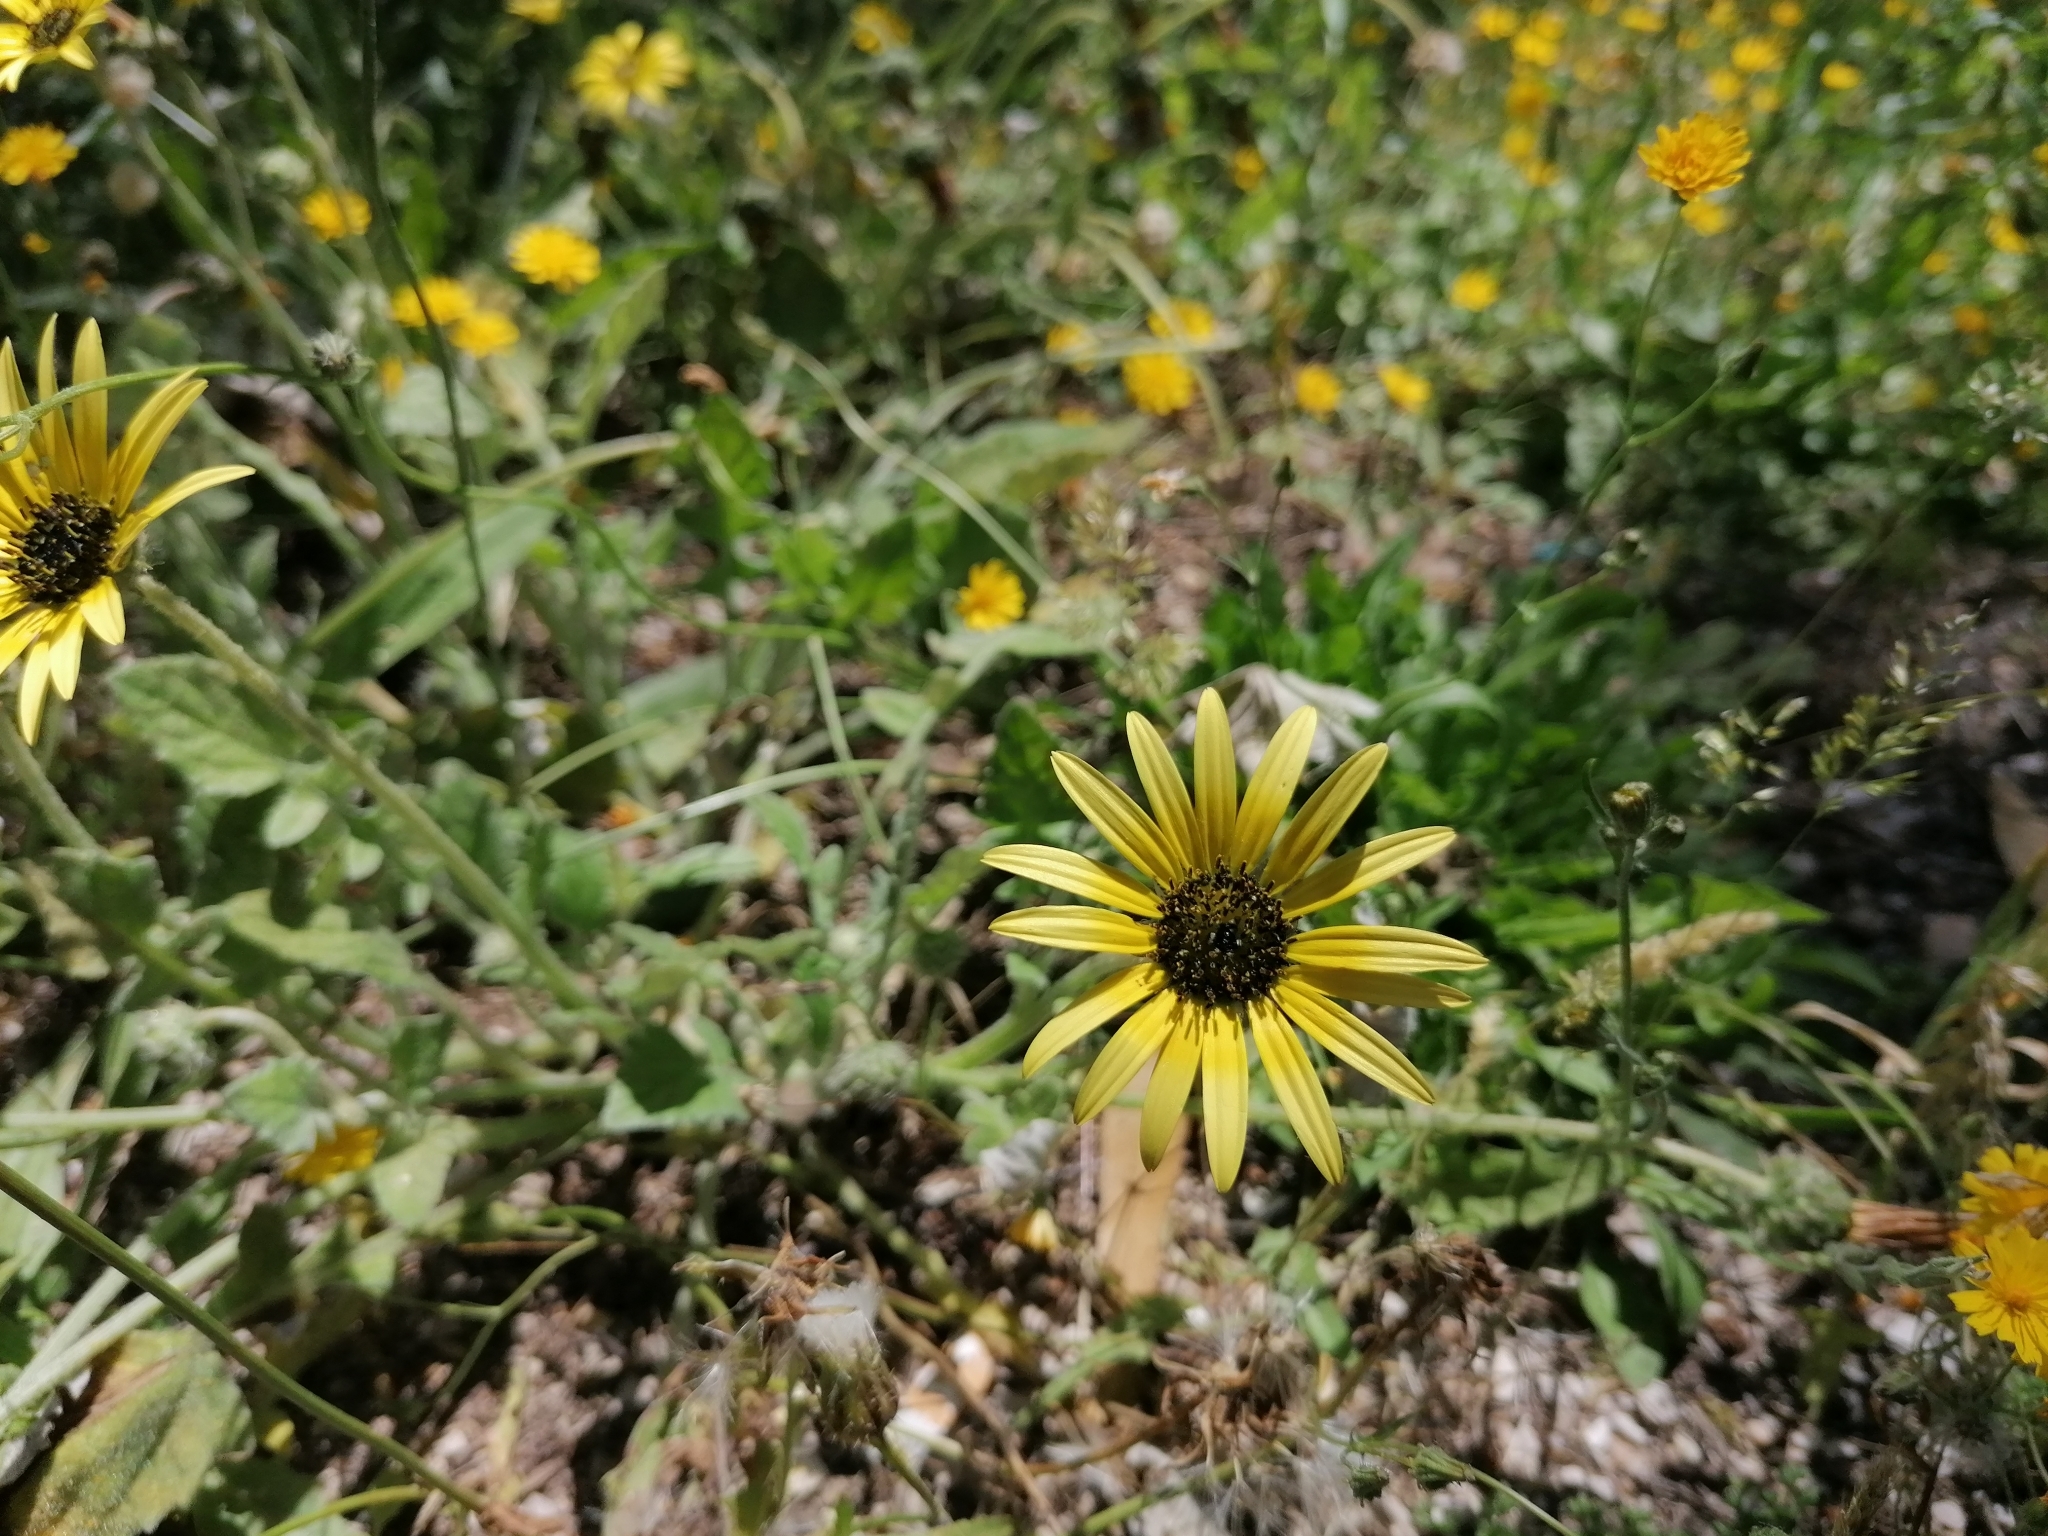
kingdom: Plantae
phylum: Tracheophyta
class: Magnoliopsida
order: Asterales
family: Asteraceae
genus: Arctotheca
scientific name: Arctotheca calendula
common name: Capeweed
